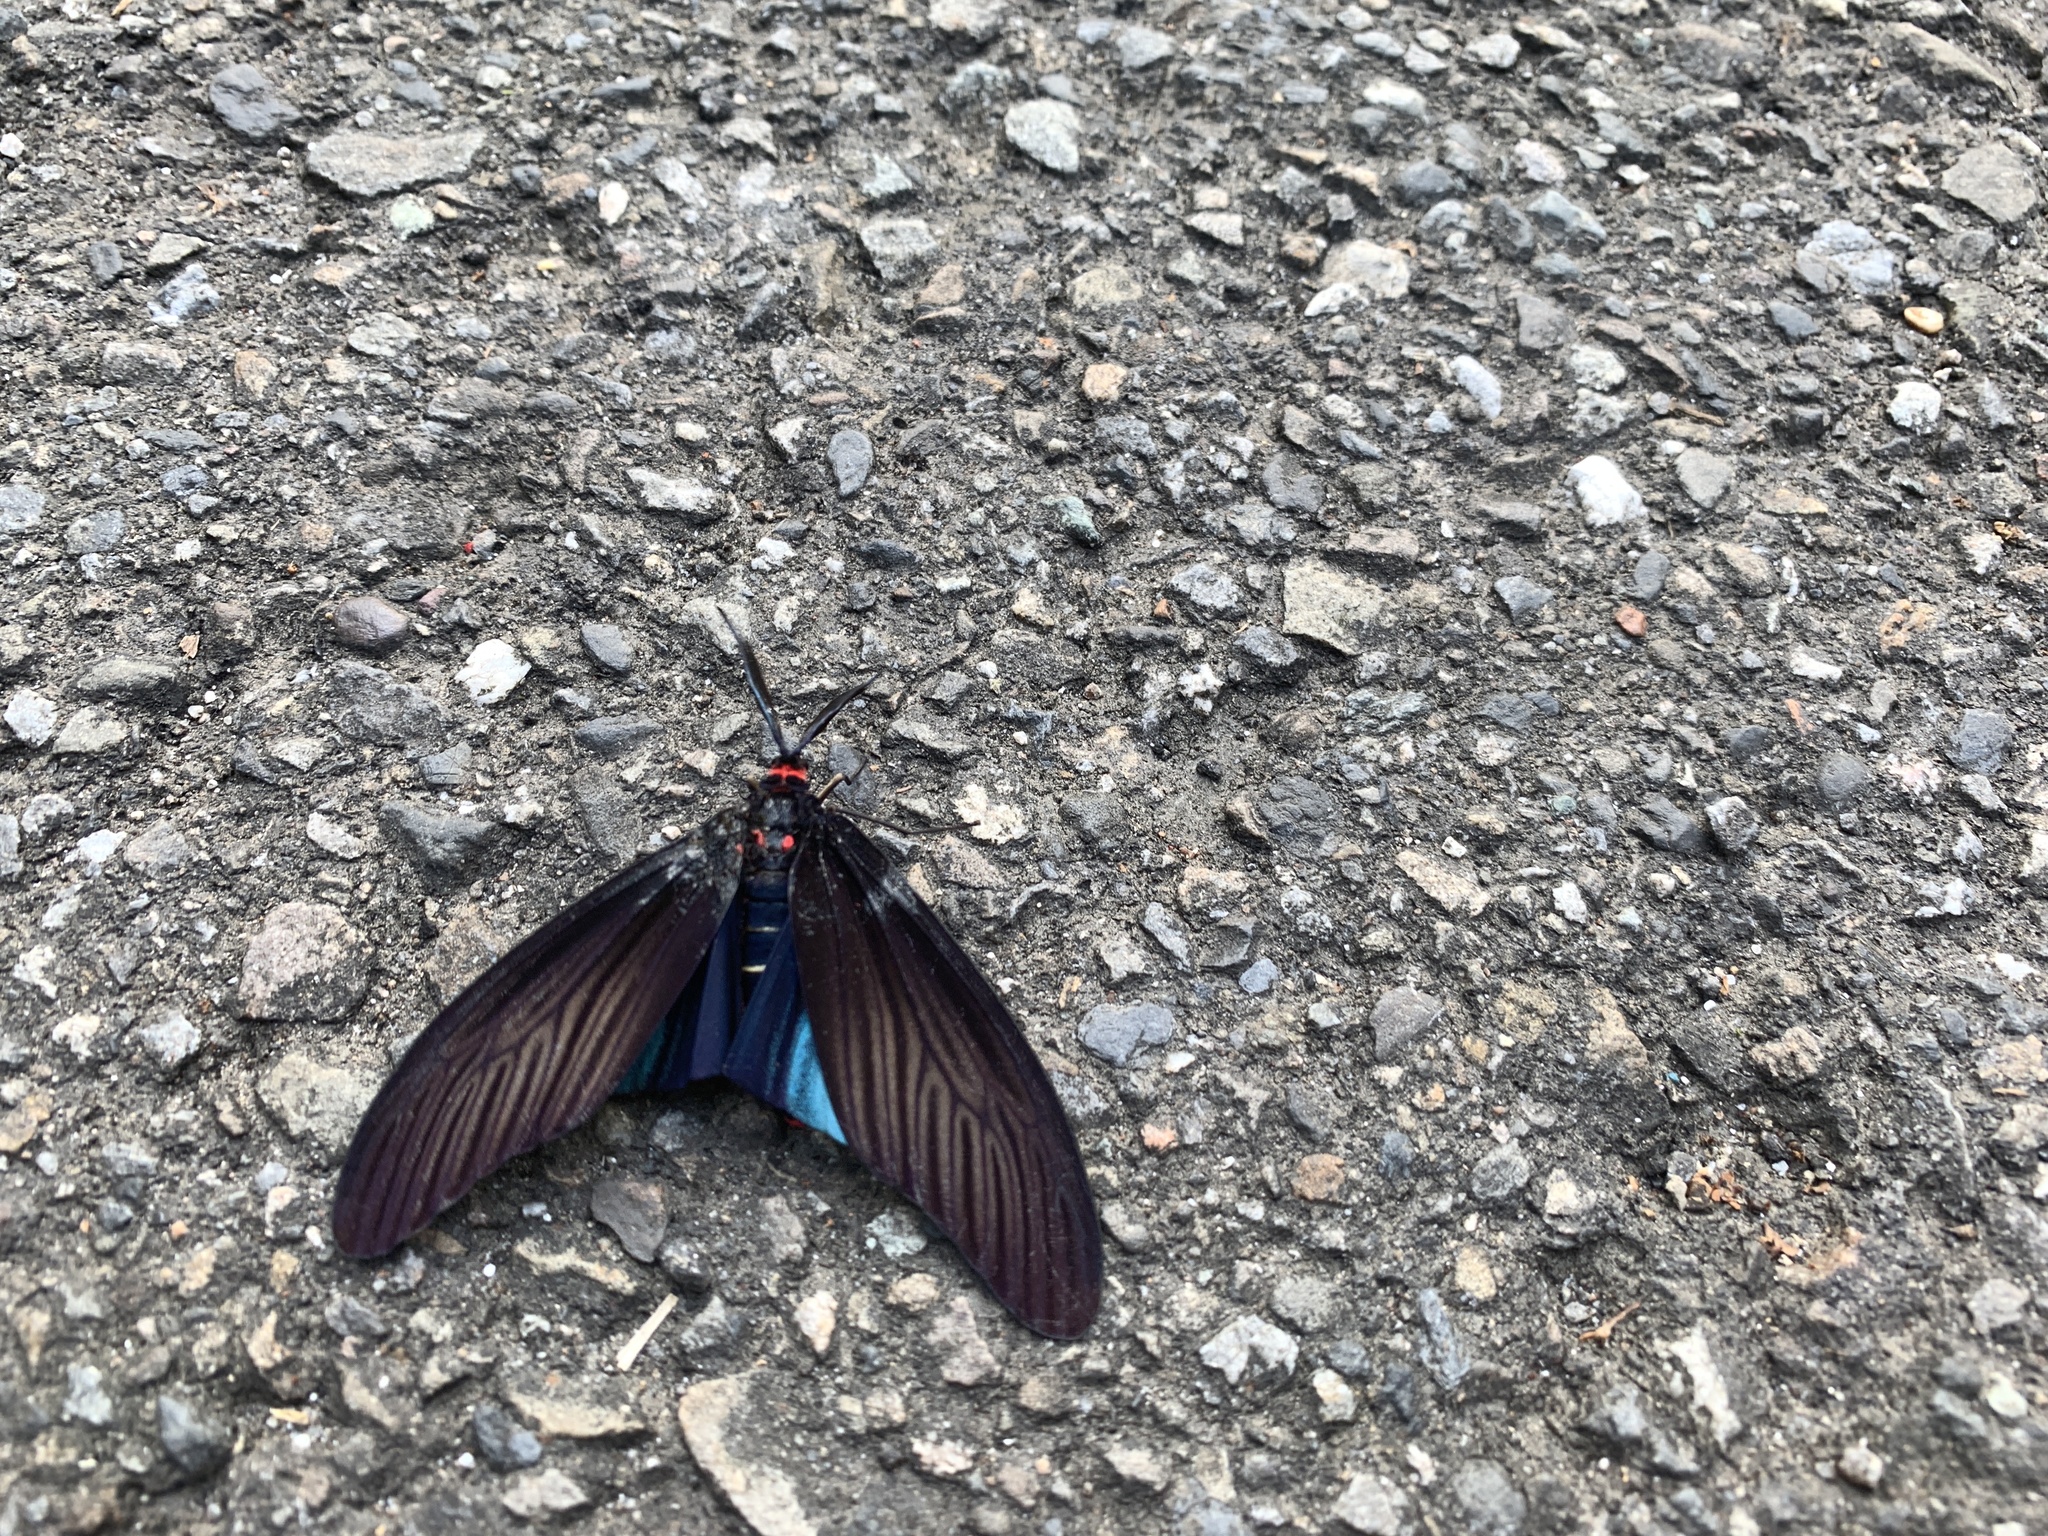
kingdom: Animalia
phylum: Arthropoda
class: Insecta
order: Lepidoptera
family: Zygaenidae
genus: Gynautocera
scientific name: Gynautocera rubriscutellata
